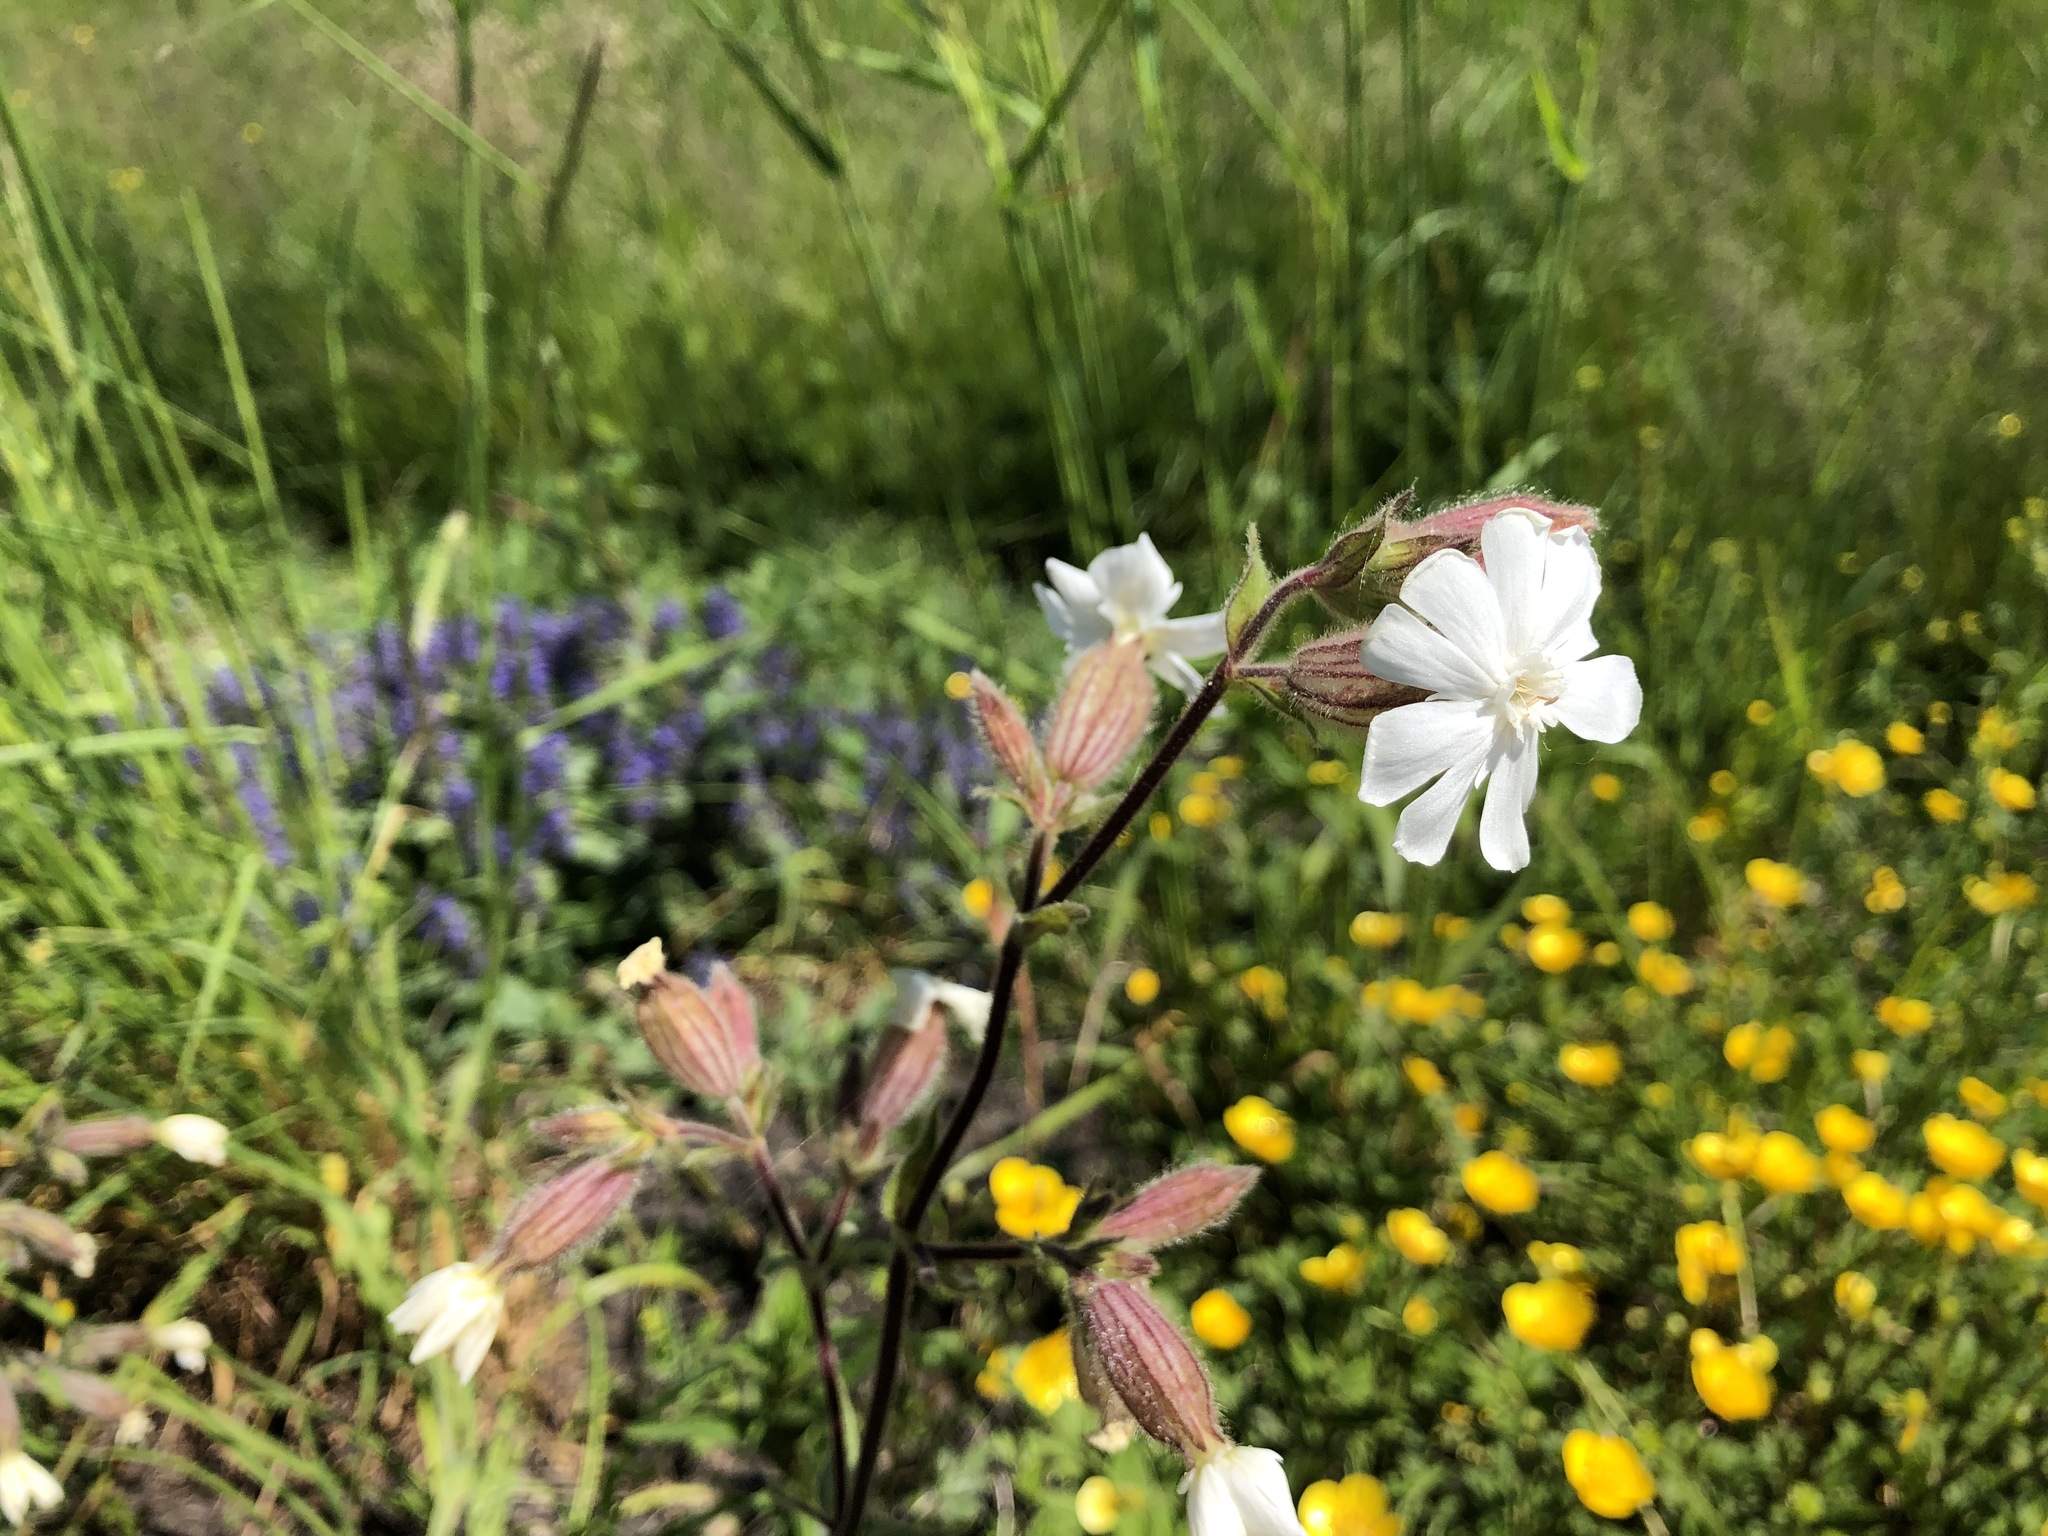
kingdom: Plantae
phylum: Tracheophyta
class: Magnoliopsida
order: Caryophyllales
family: Caryophyllaceae
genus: Silene
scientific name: Silene latifolia
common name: White campion
